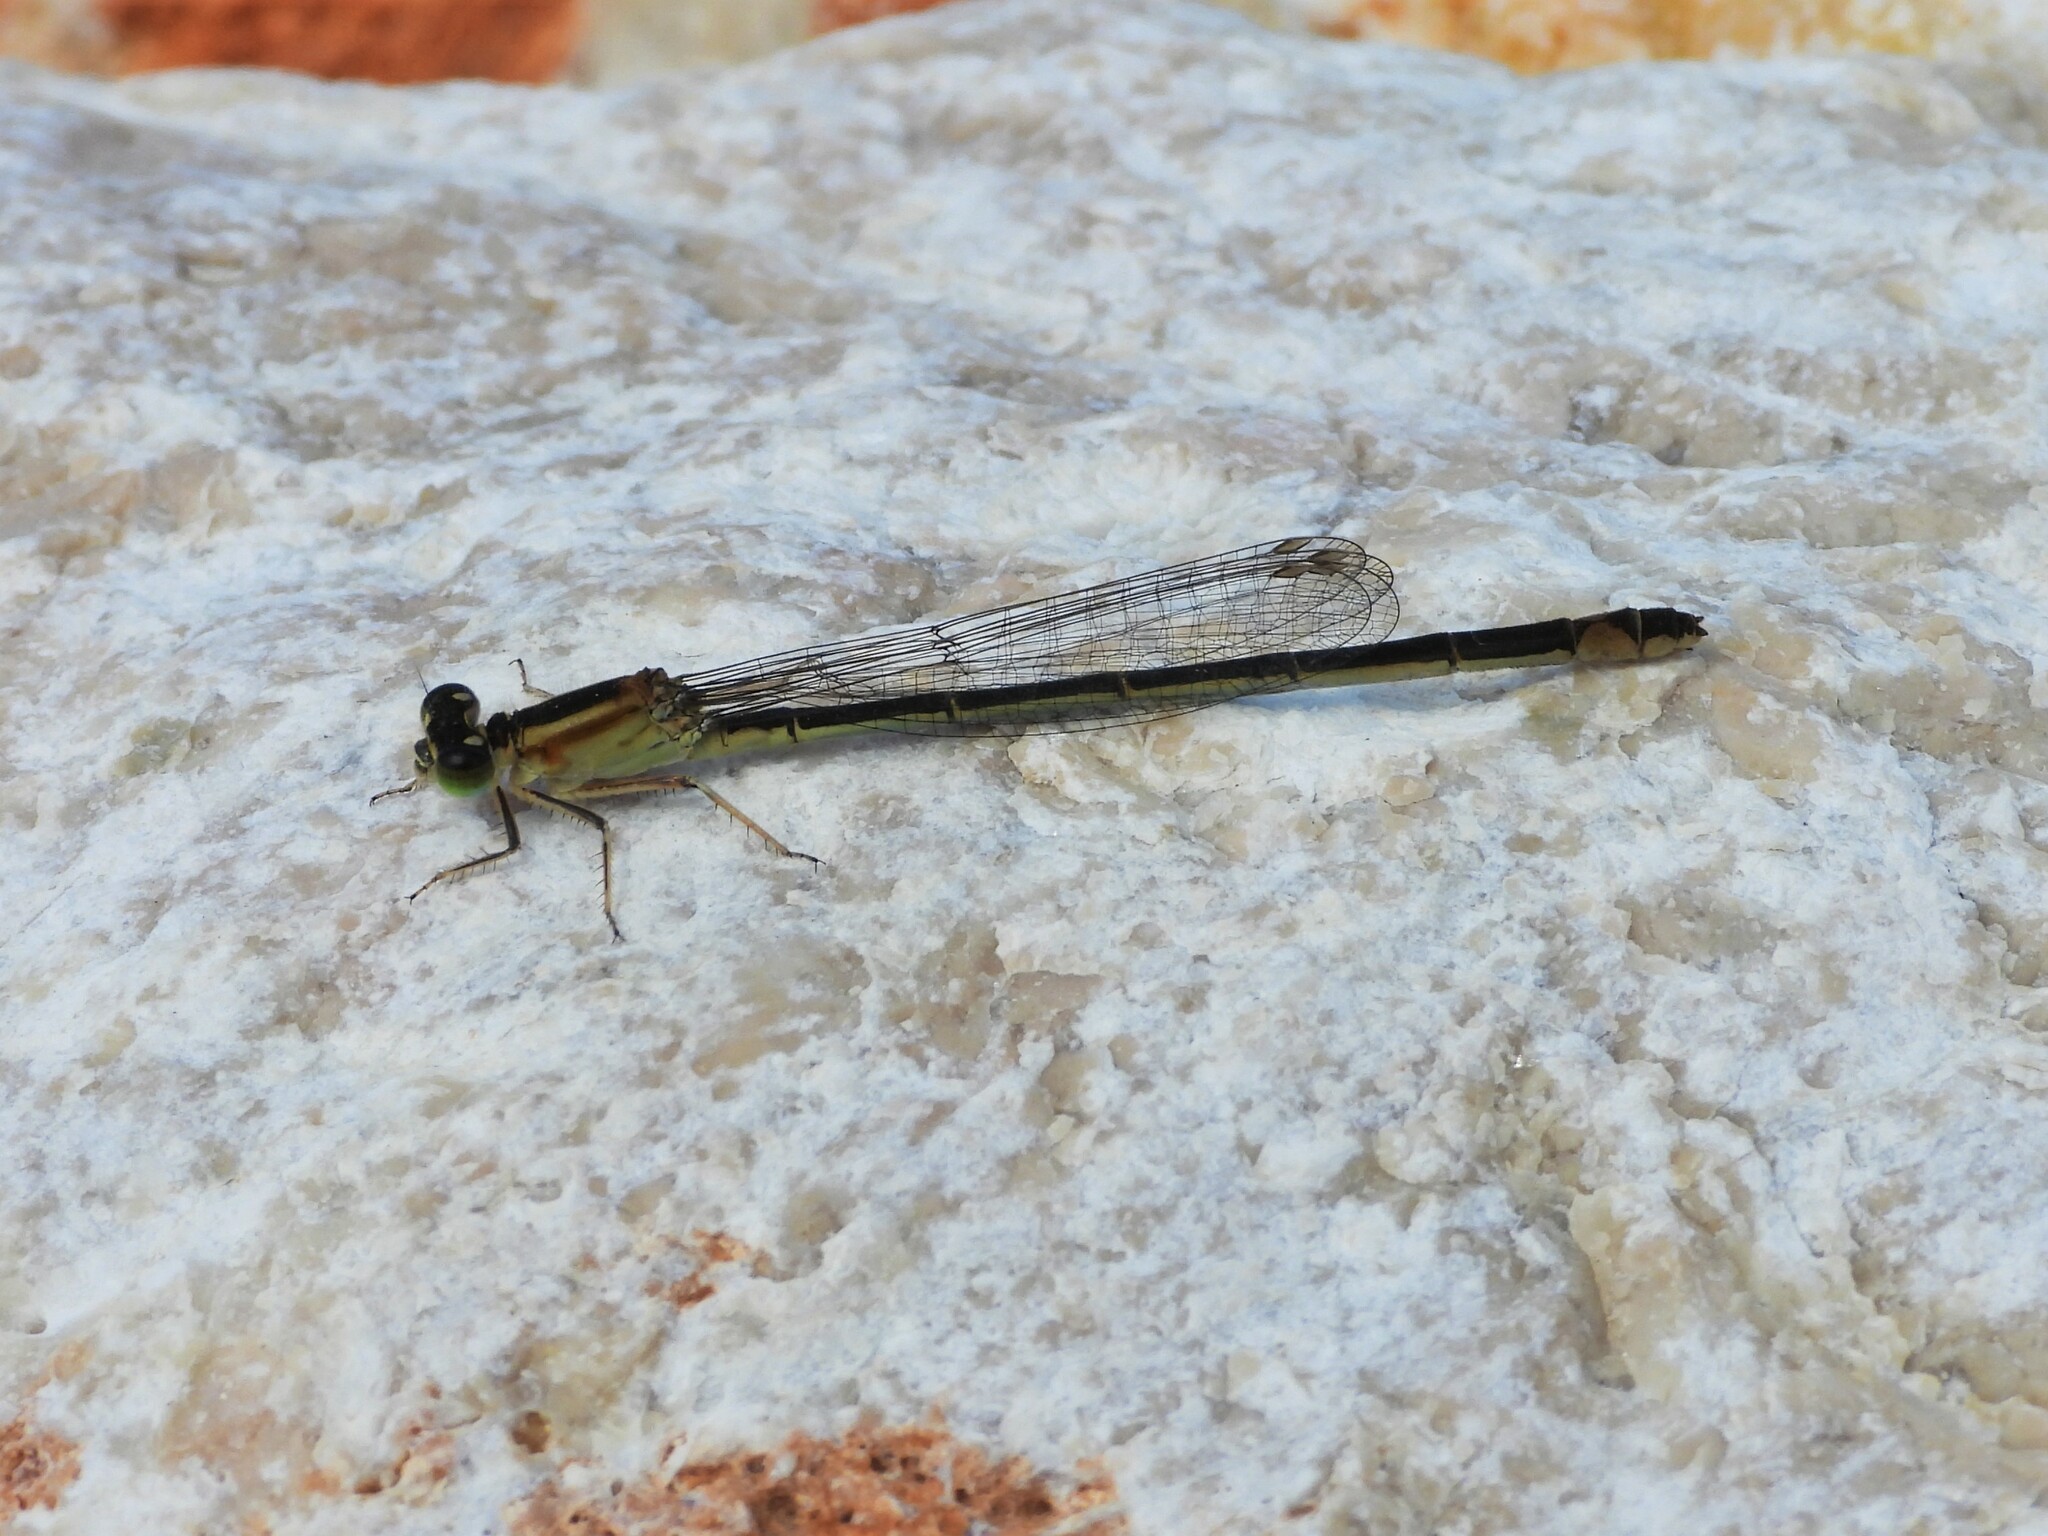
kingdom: Animalia
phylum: Arthropoda
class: Insecta
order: Odonata
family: Coenagrionidae
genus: Ischnura
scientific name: Ischnura elegans
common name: Blue-tailed damselfly
